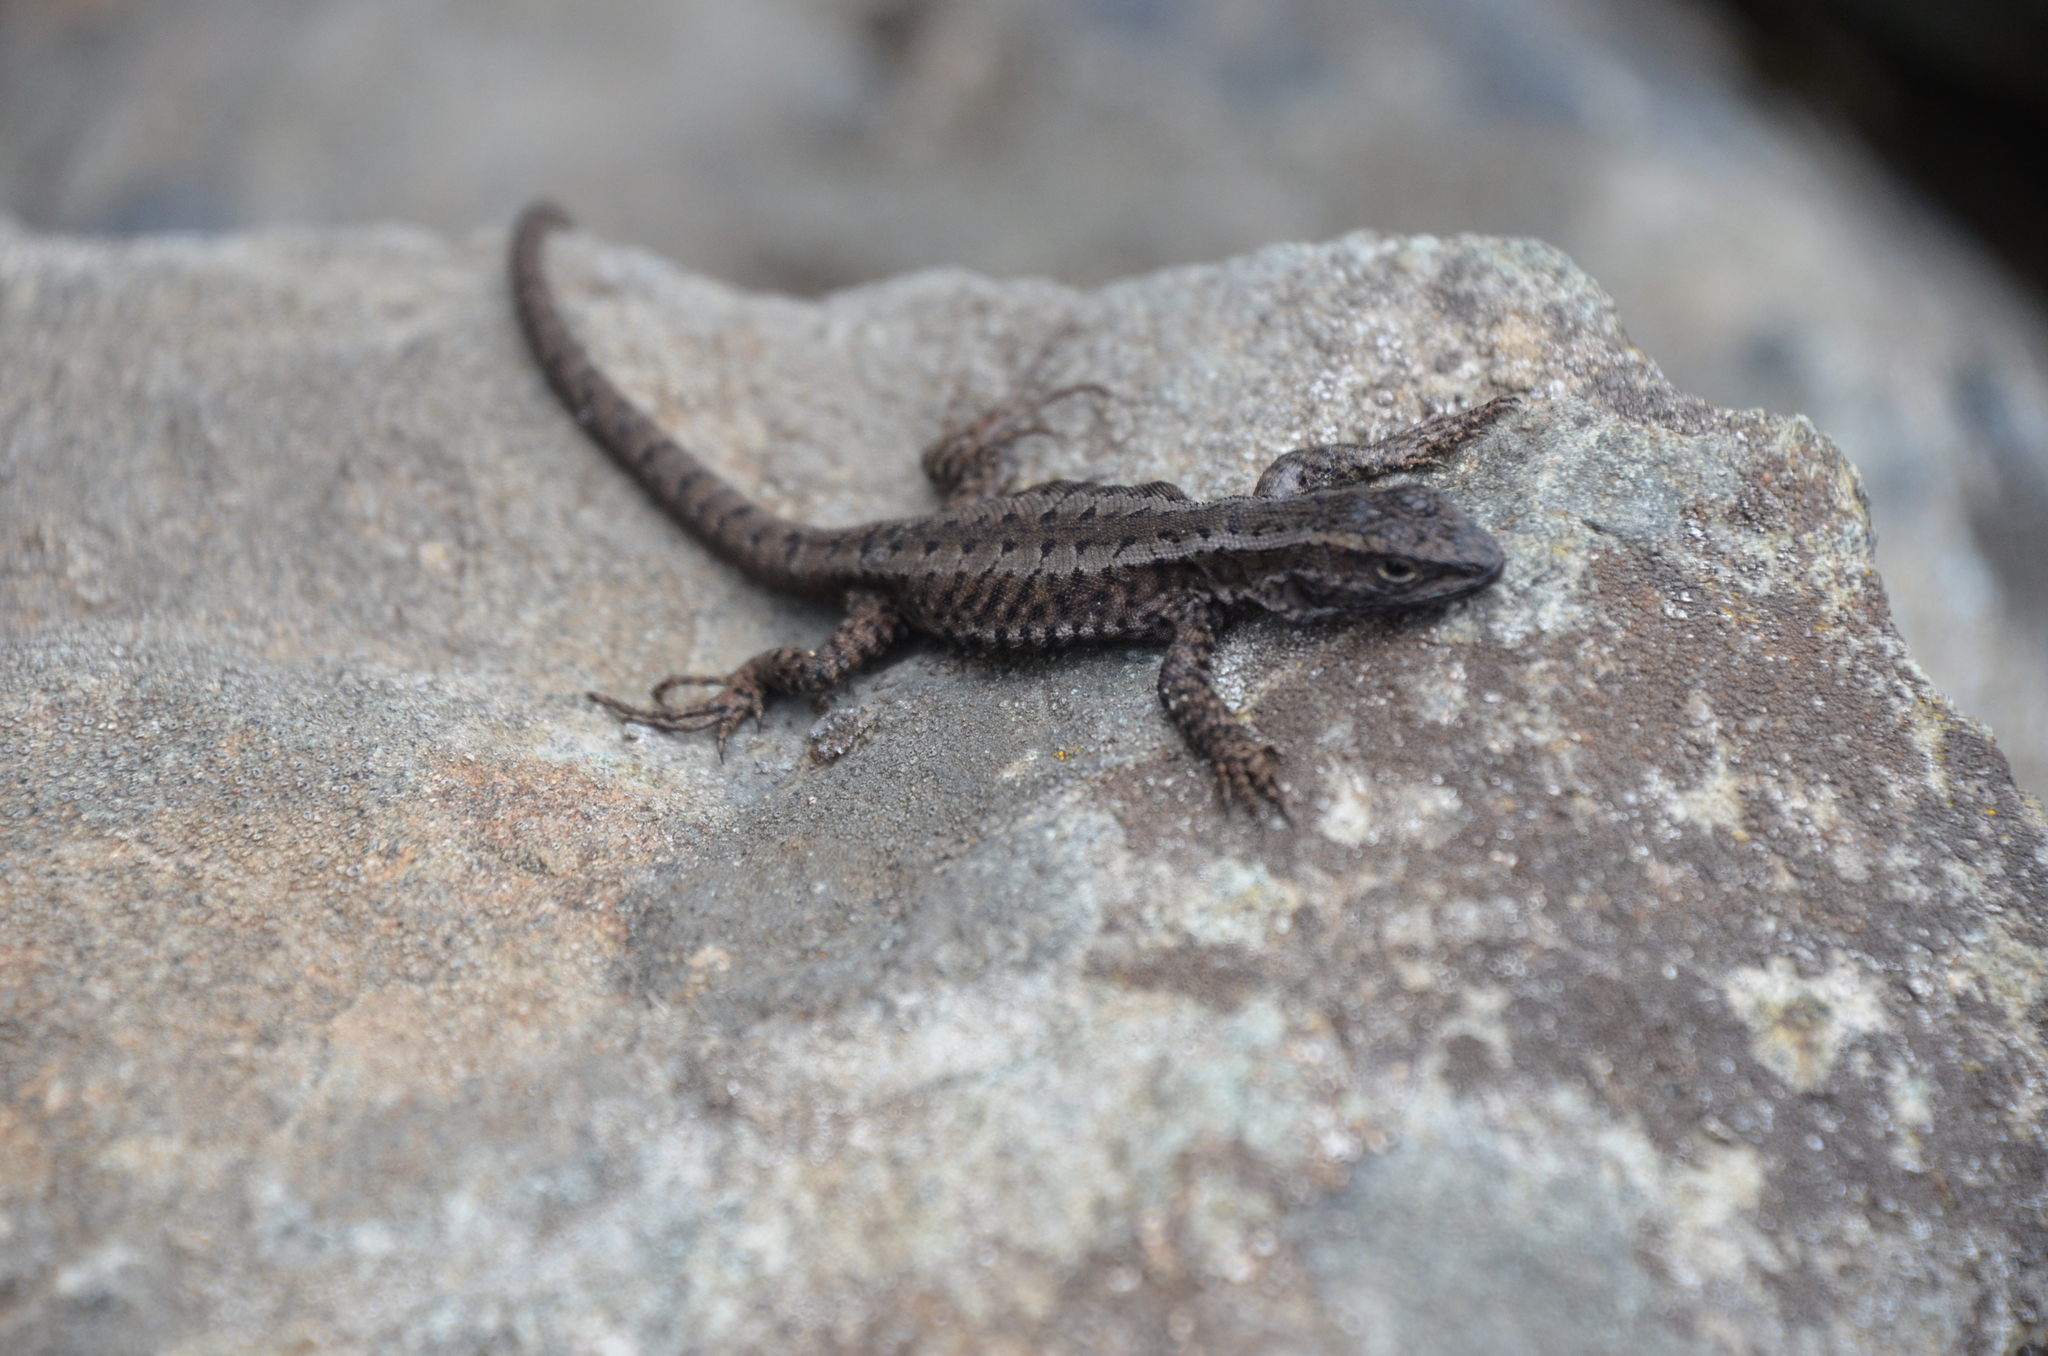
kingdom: Animalia
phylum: Chordata
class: Squamata
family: Liolaemidae
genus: Liolaemus
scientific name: Liolaemus pictus
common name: Painted tree iguana
